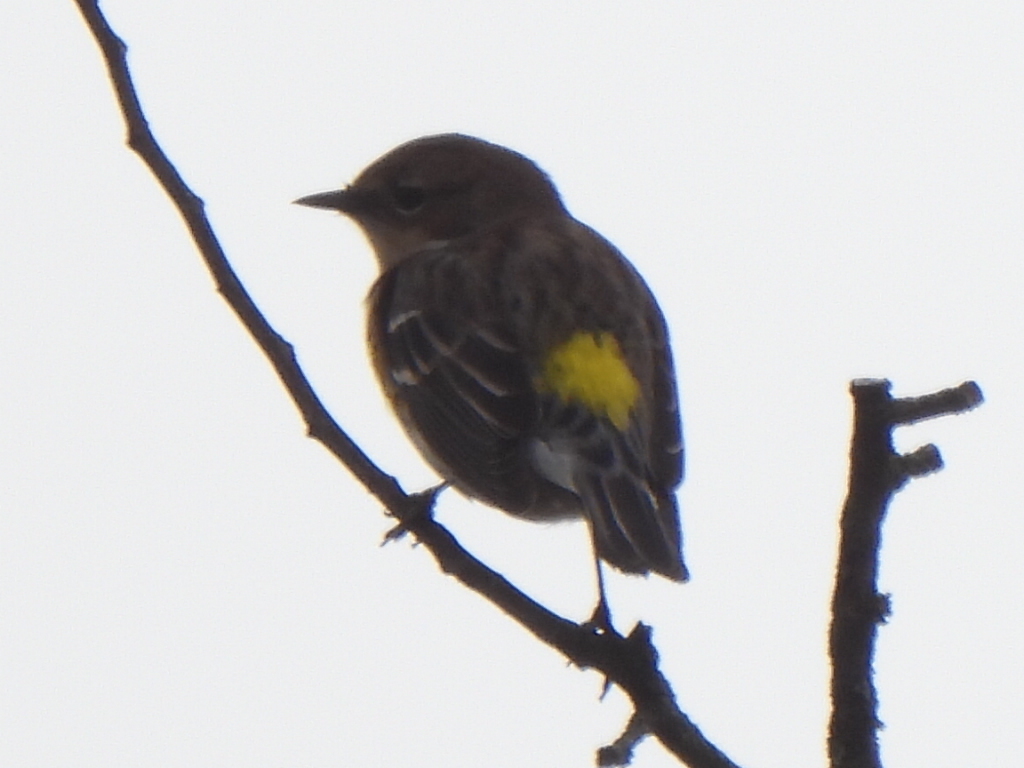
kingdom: Animalia
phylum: Chordata
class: Aves
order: Passeriformes
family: Parulidae
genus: Setophaga
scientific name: Setophaga coronata
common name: Myrtle warbler
